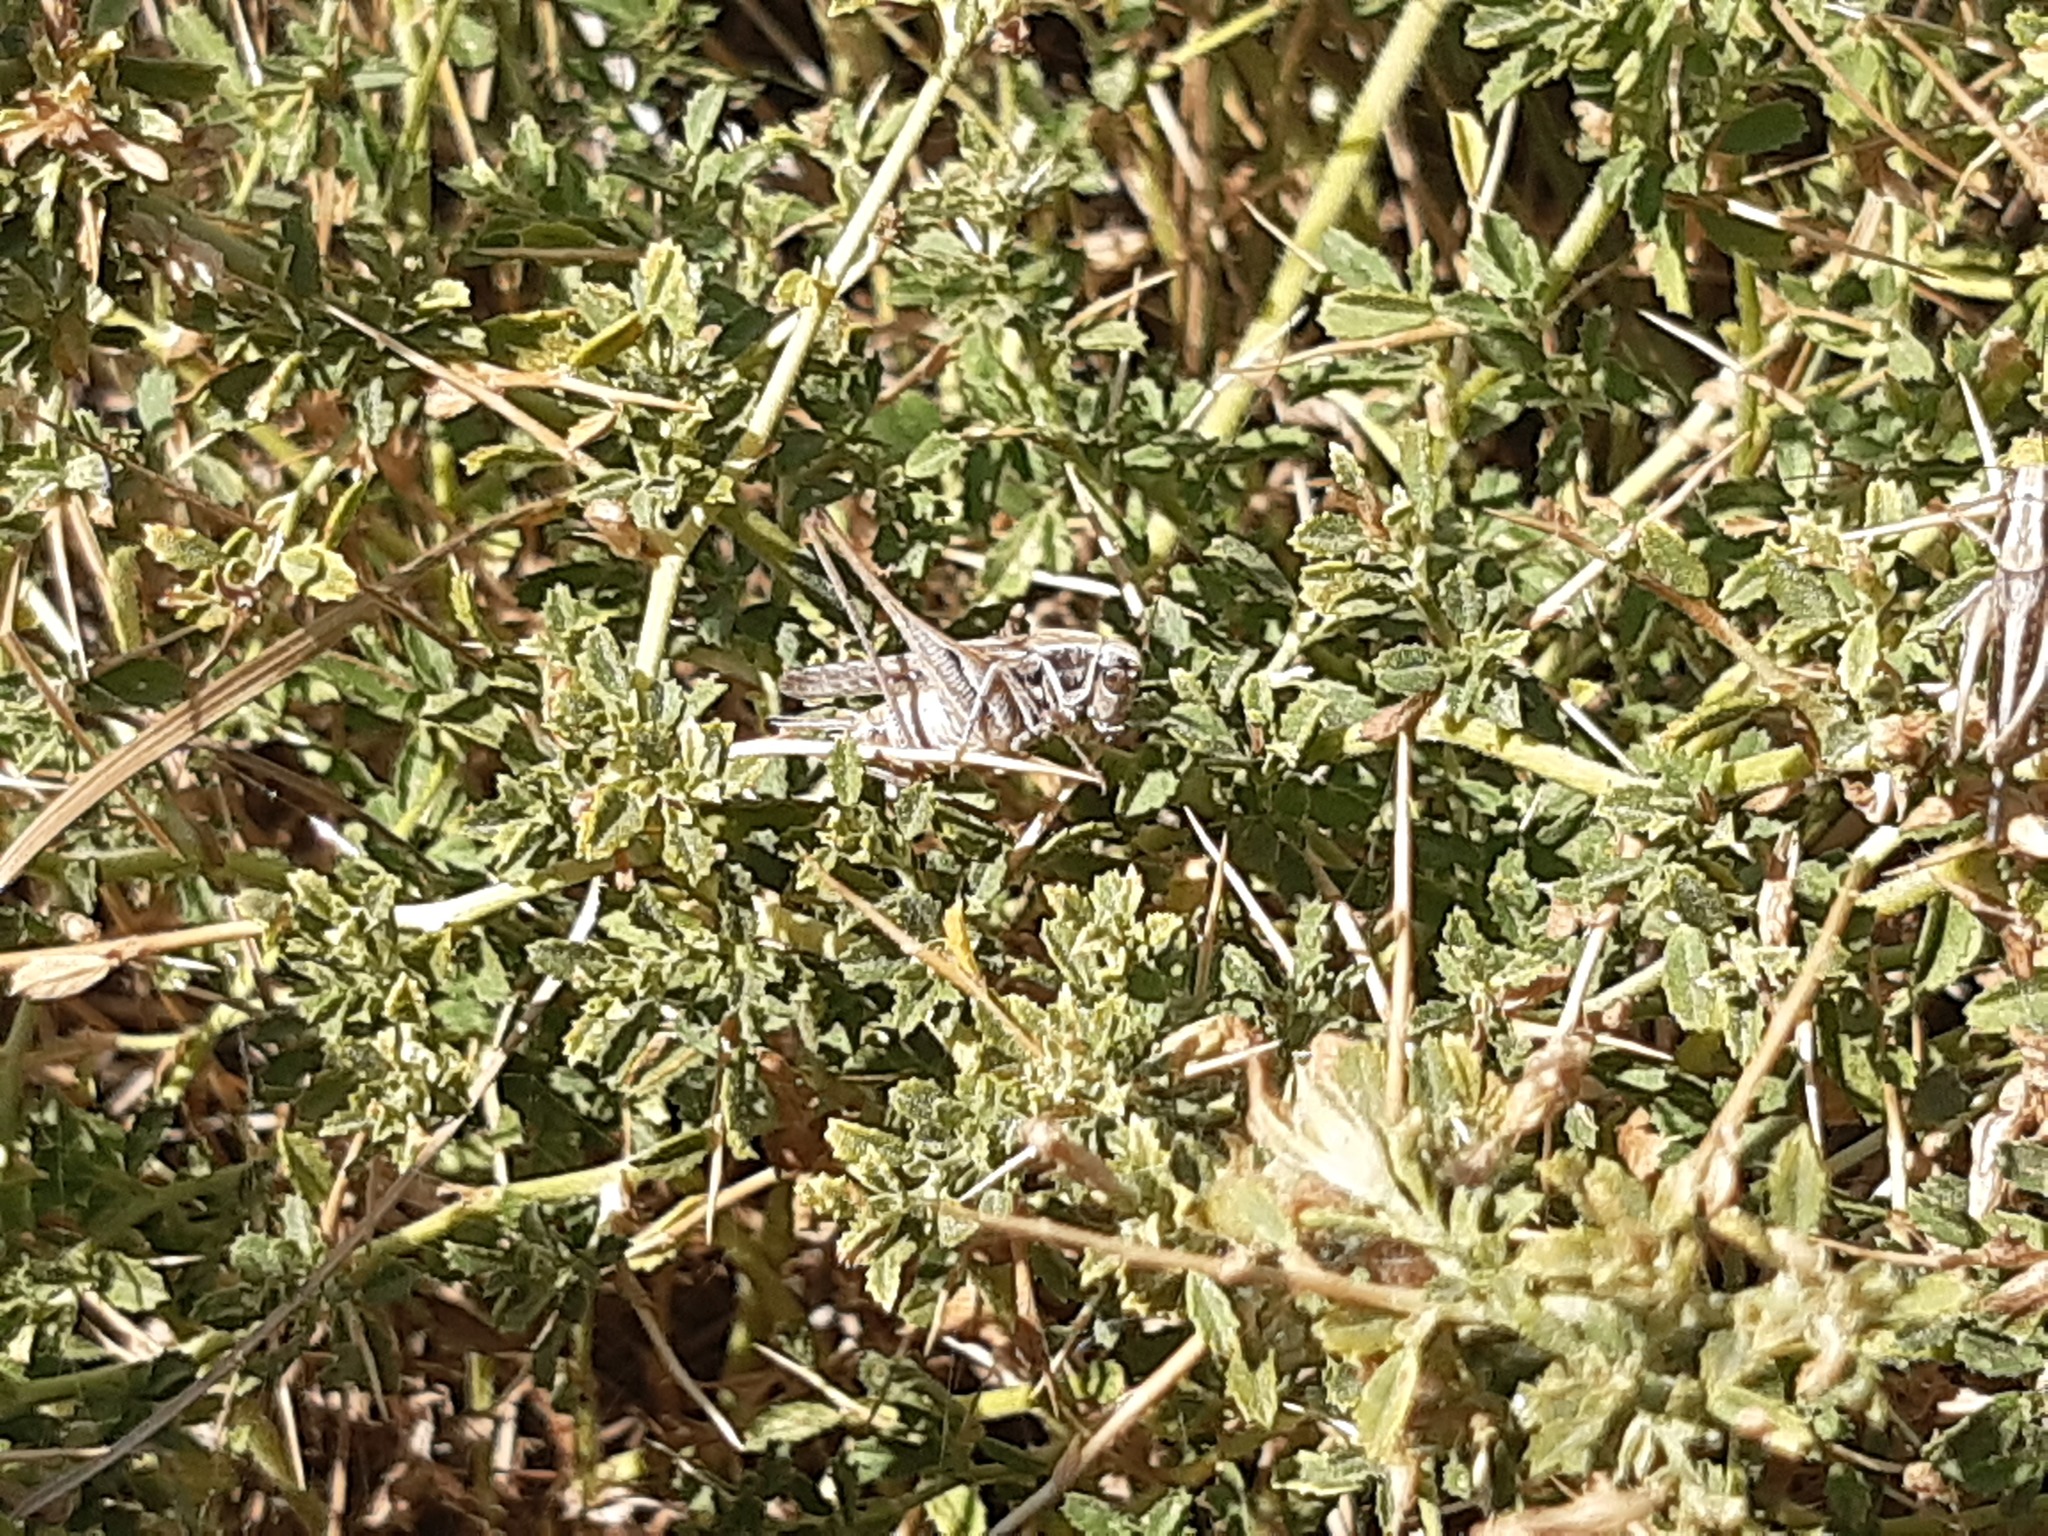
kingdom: Animalia
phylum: Arthropoda
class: Insecta
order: Orthoptera
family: Tettigoniidae
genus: Montana
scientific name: Montana stricta
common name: Italian bush-cricket
